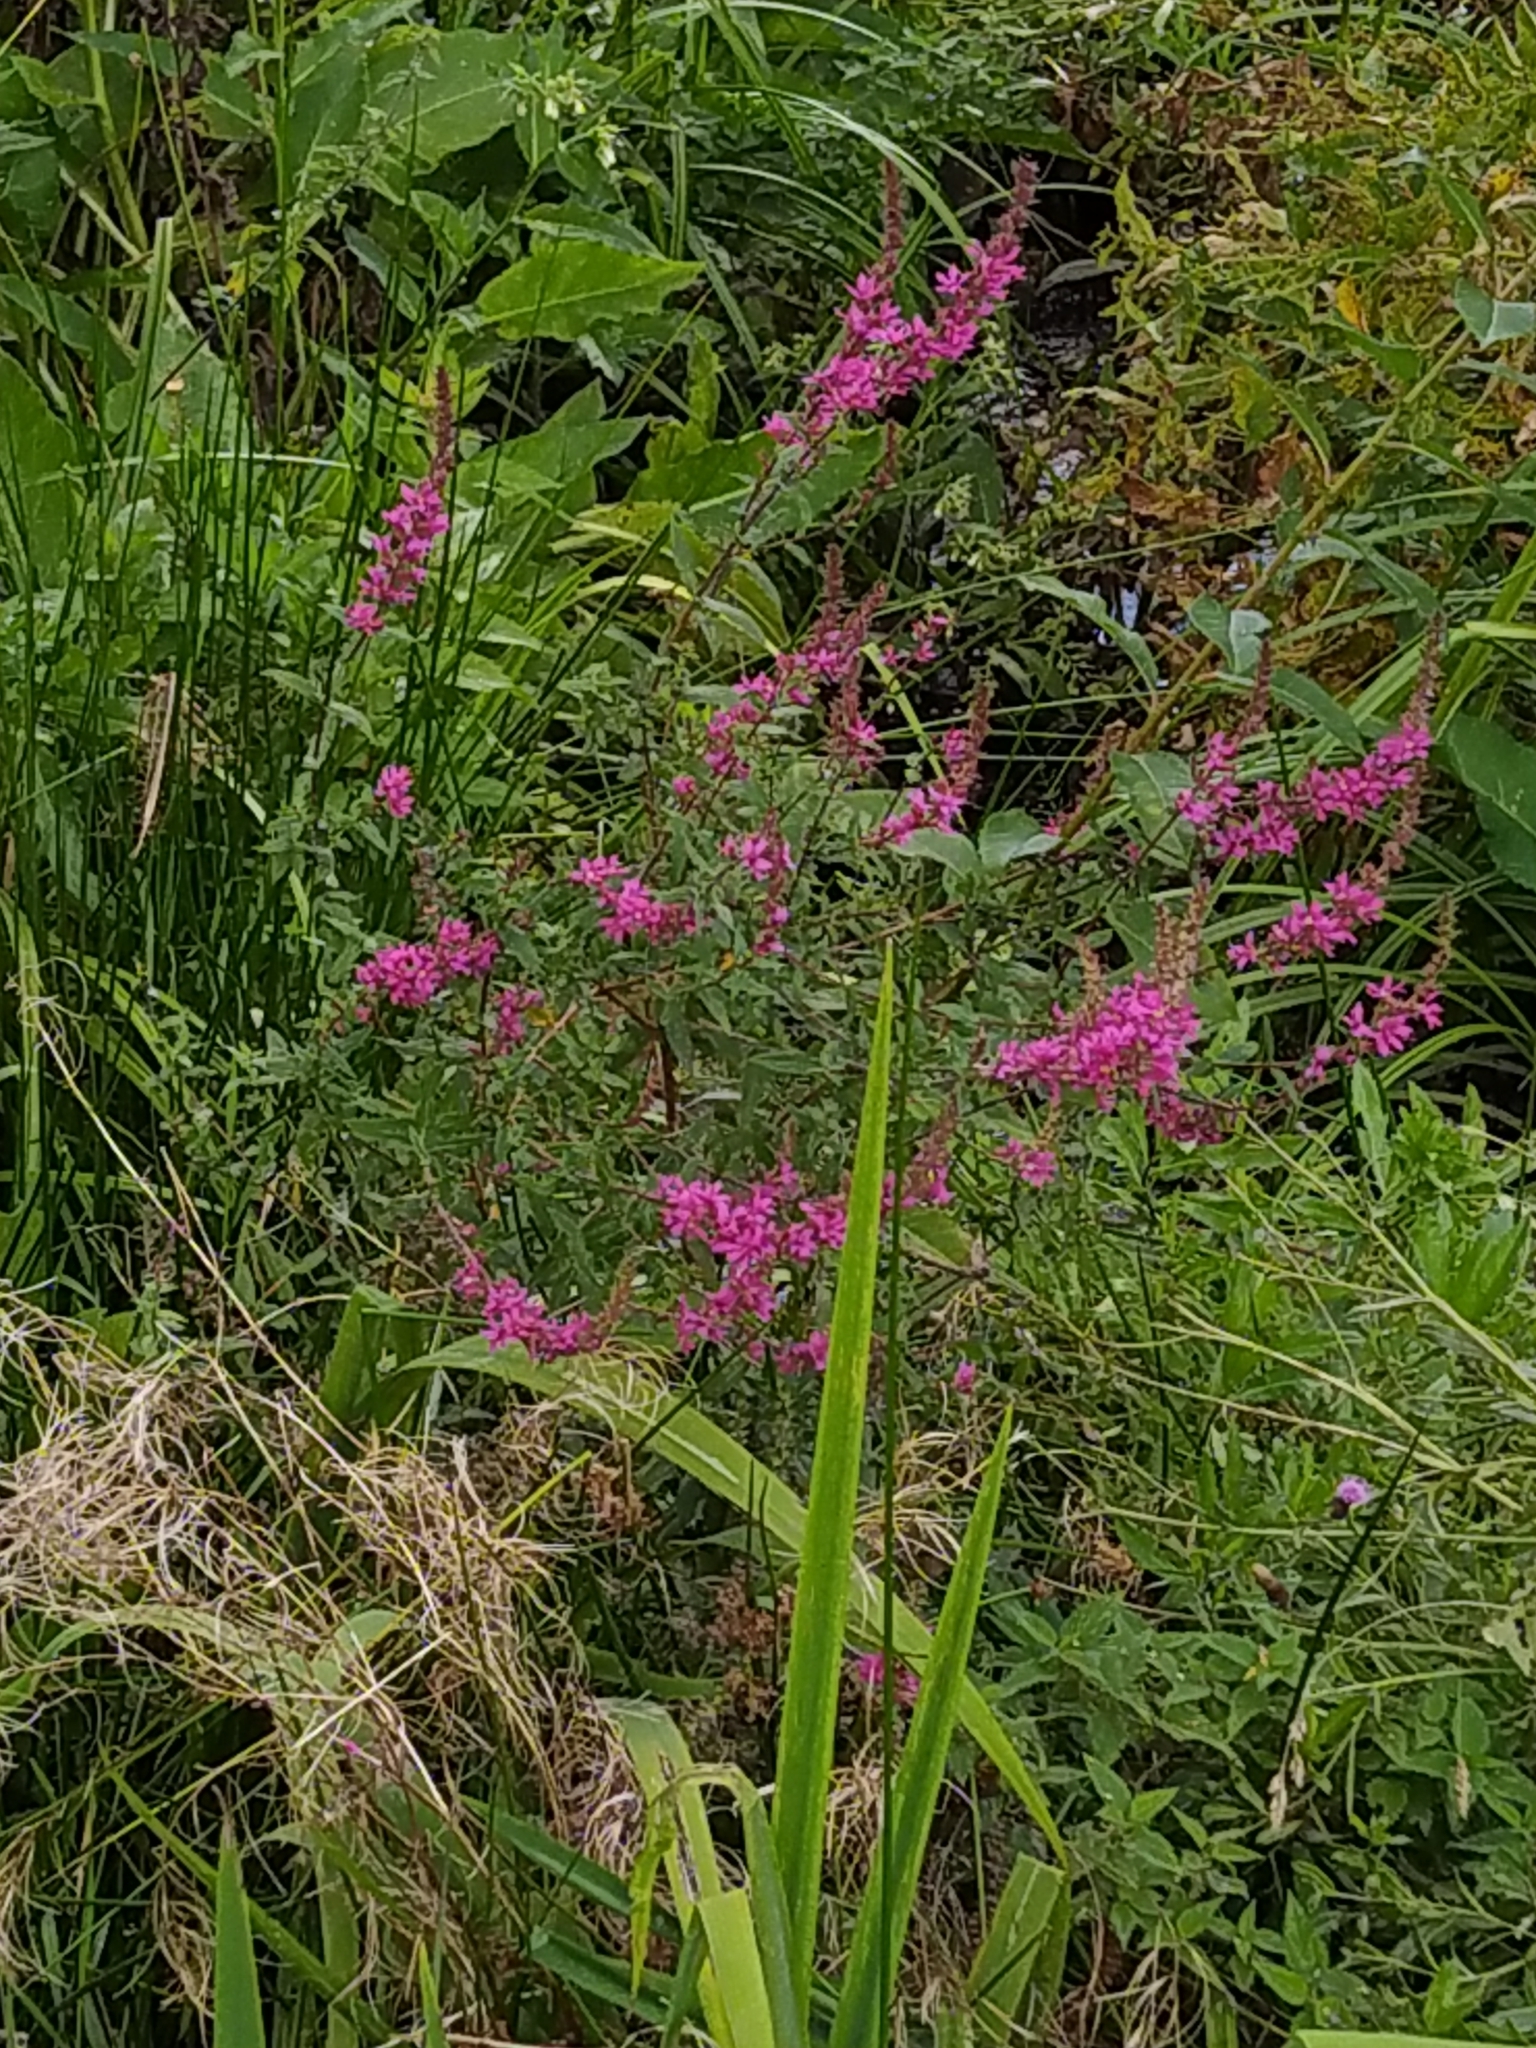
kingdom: Plantae
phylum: Tracheophyta
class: Magnoliopsida
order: Myrtales
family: Lythraceae
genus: Lythrum
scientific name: Lythrum salicaria
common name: Purple loosestrife
